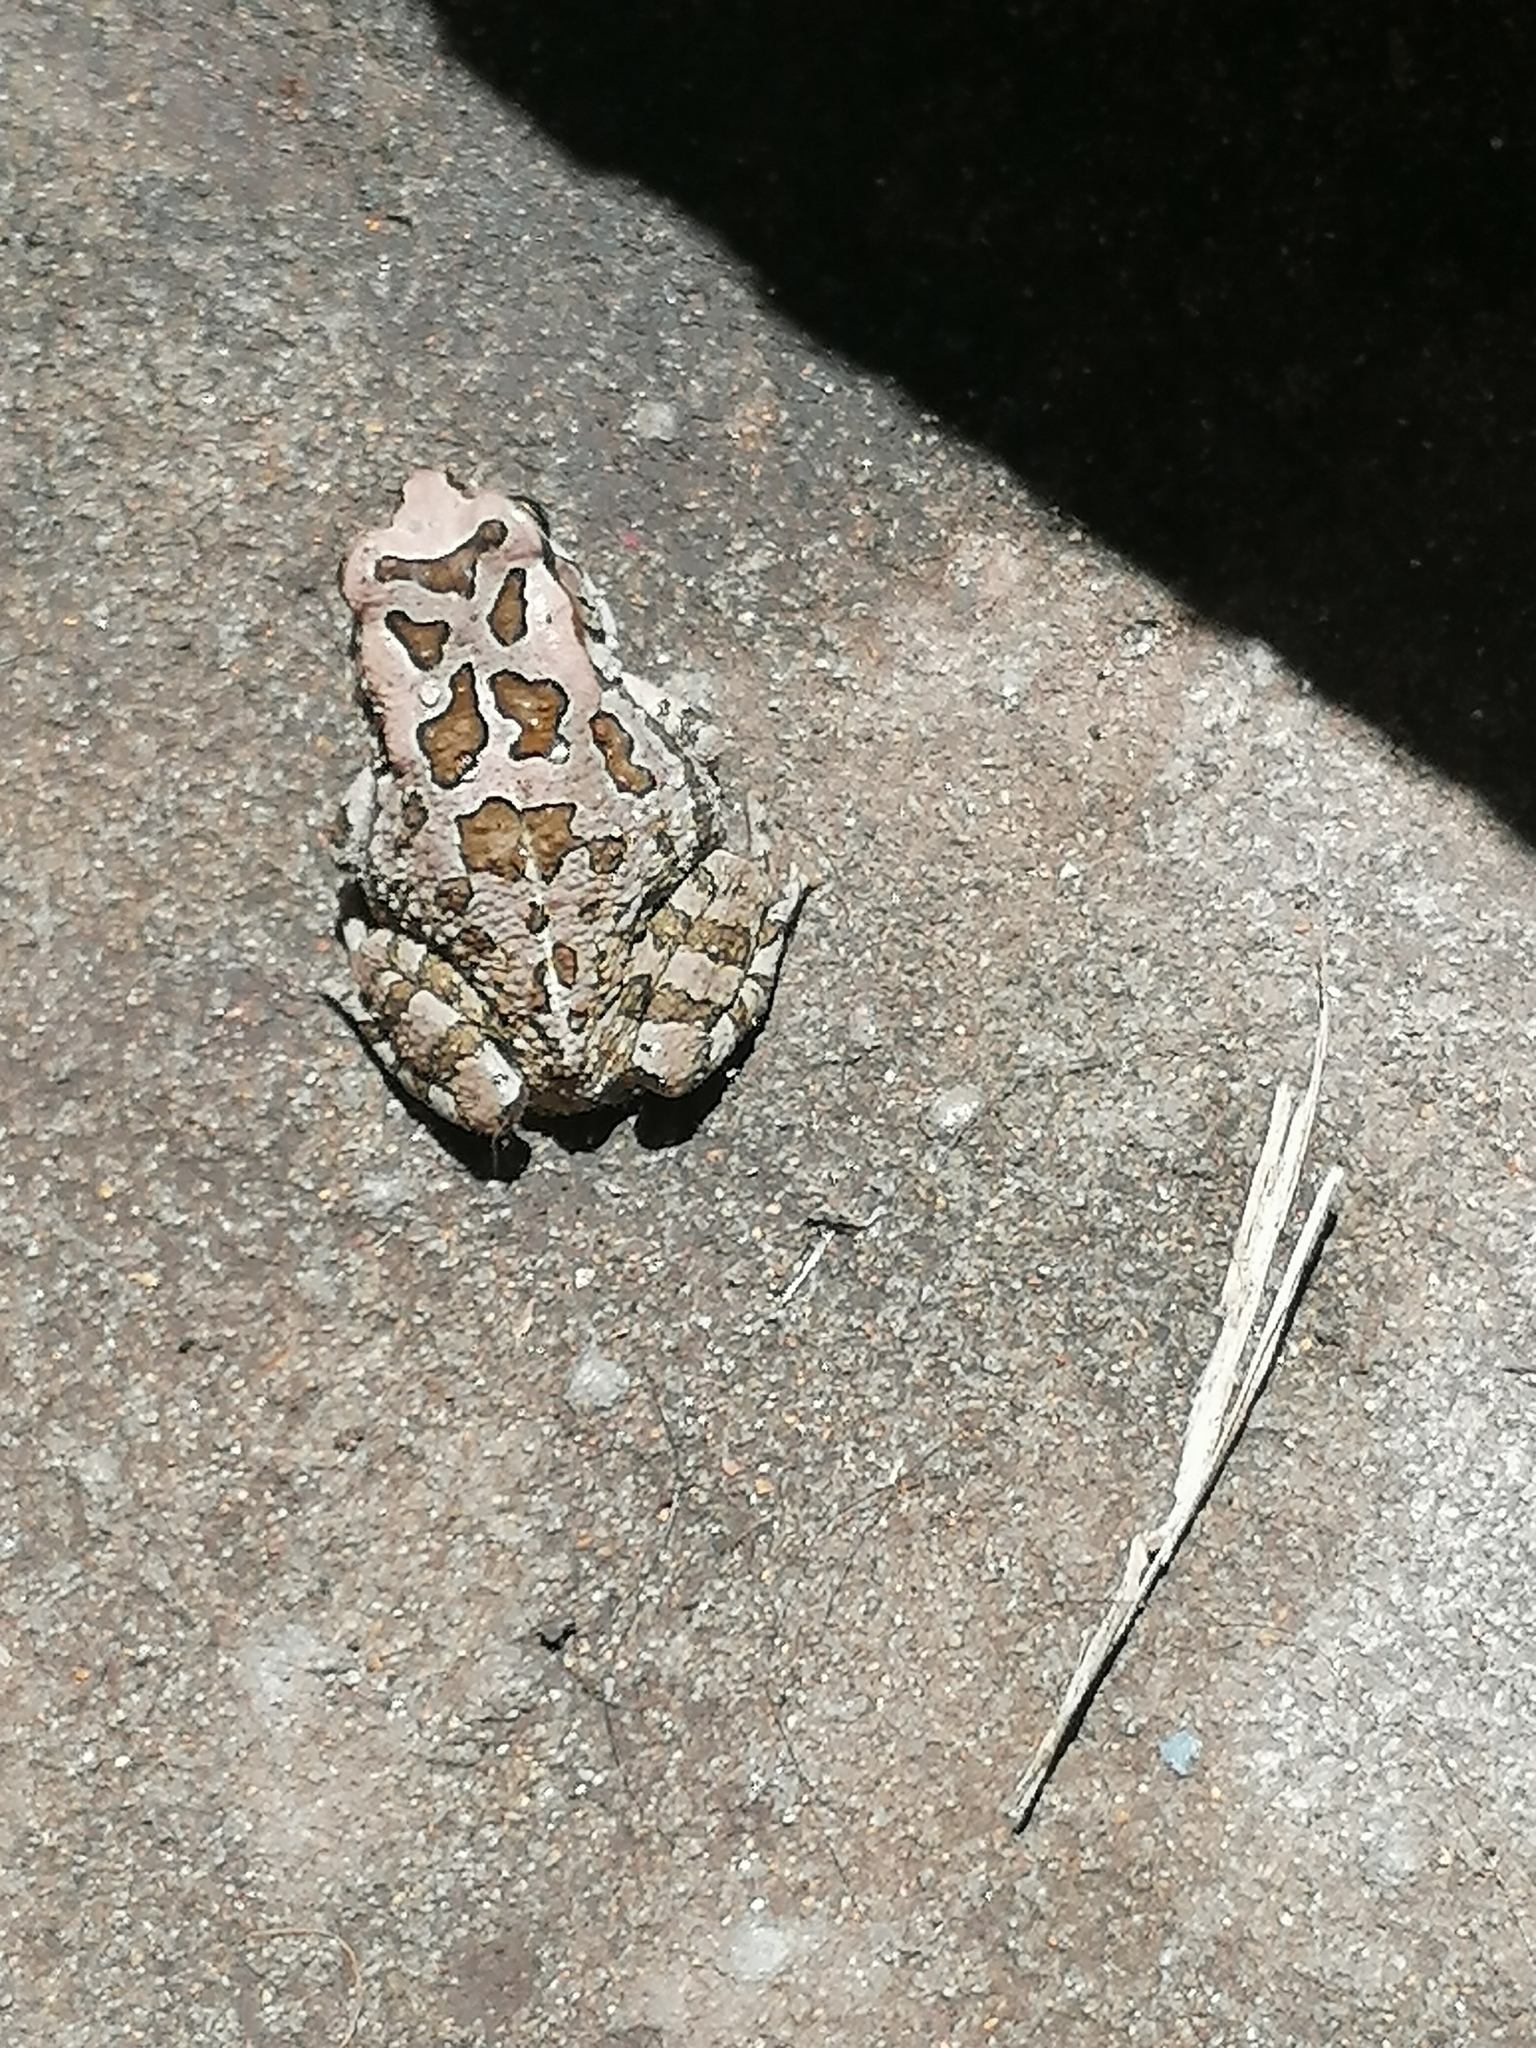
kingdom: Animalia
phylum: Chordata
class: Amphibia
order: Anura
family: Bufonidae
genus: Sclerophrys
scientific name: Sclerophrys capensis
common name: Ranger’s toad
